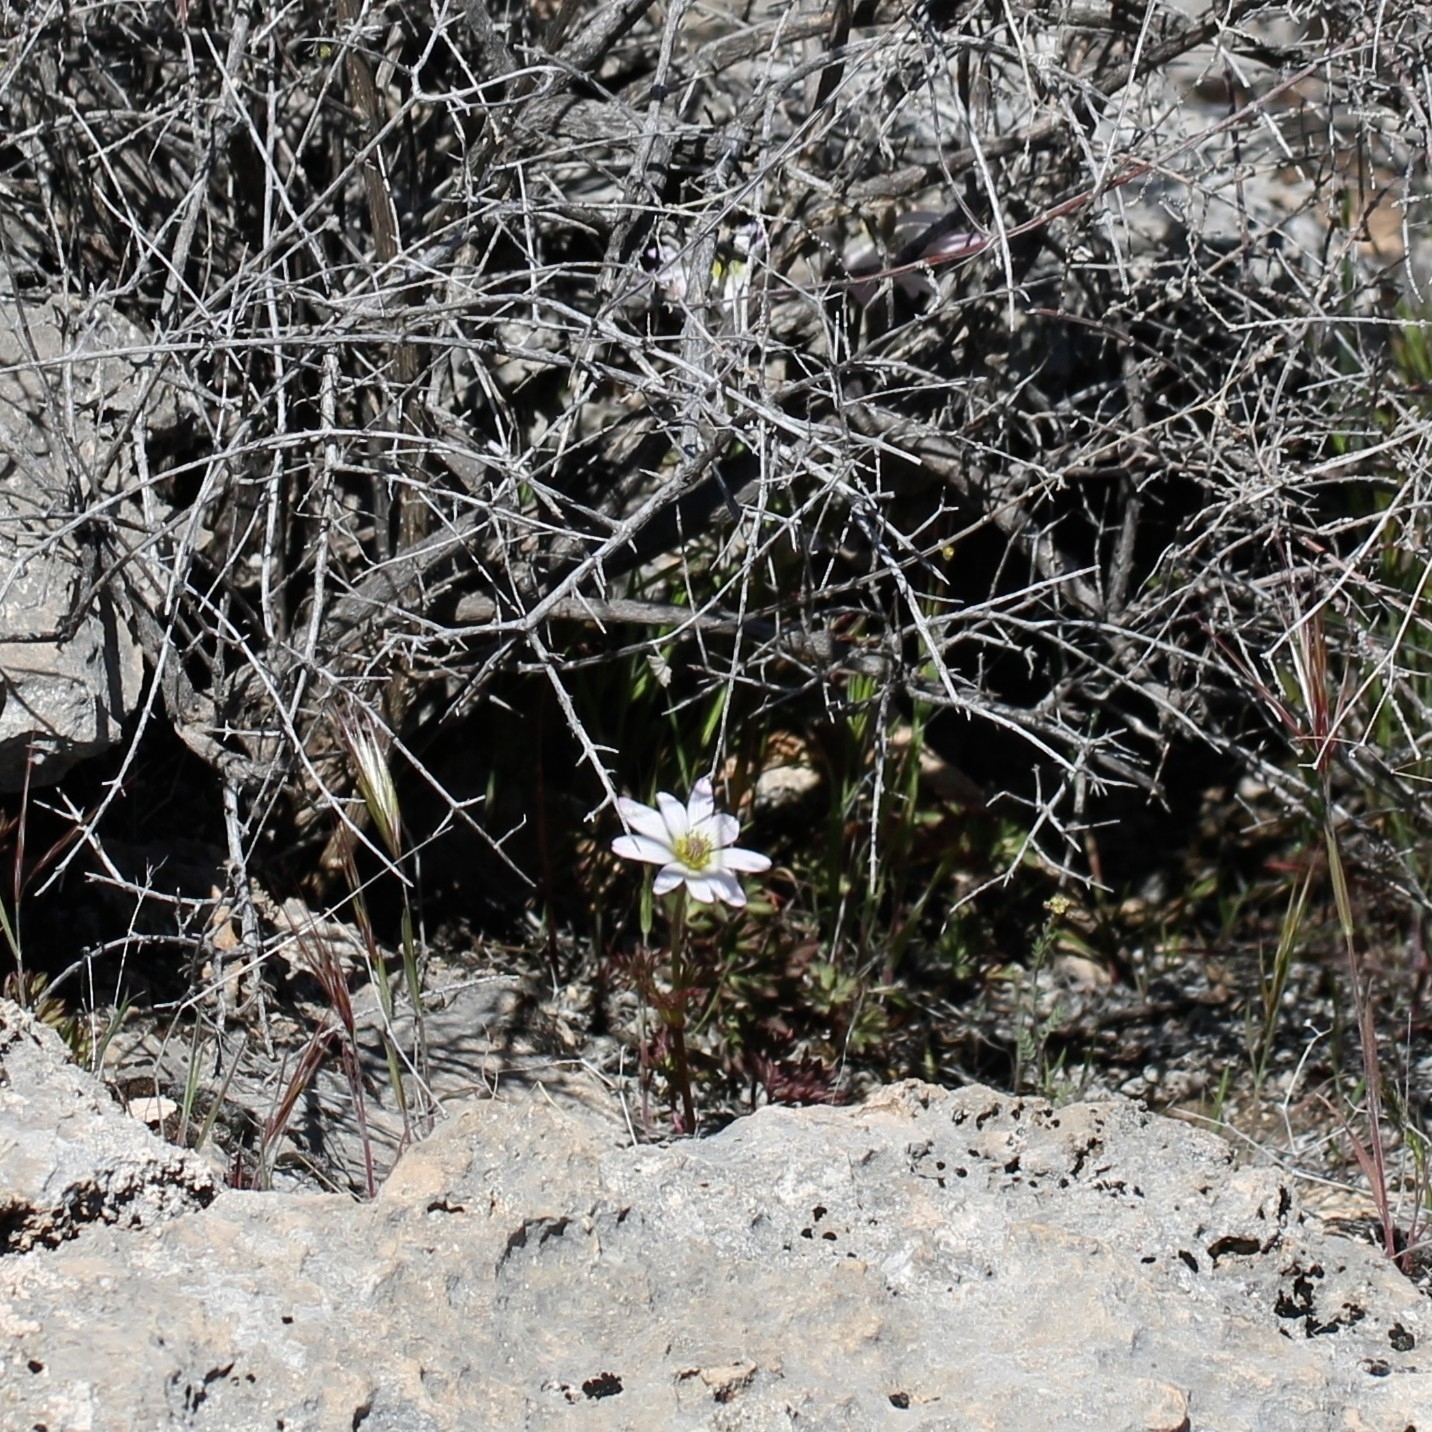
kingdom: Plantae
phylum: Tracheophyta
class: Magnoliopsida
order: Ranunculales
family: Ranunculaceae
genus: Anemone
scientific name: Anemone tuberosa
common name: Desert anemone
